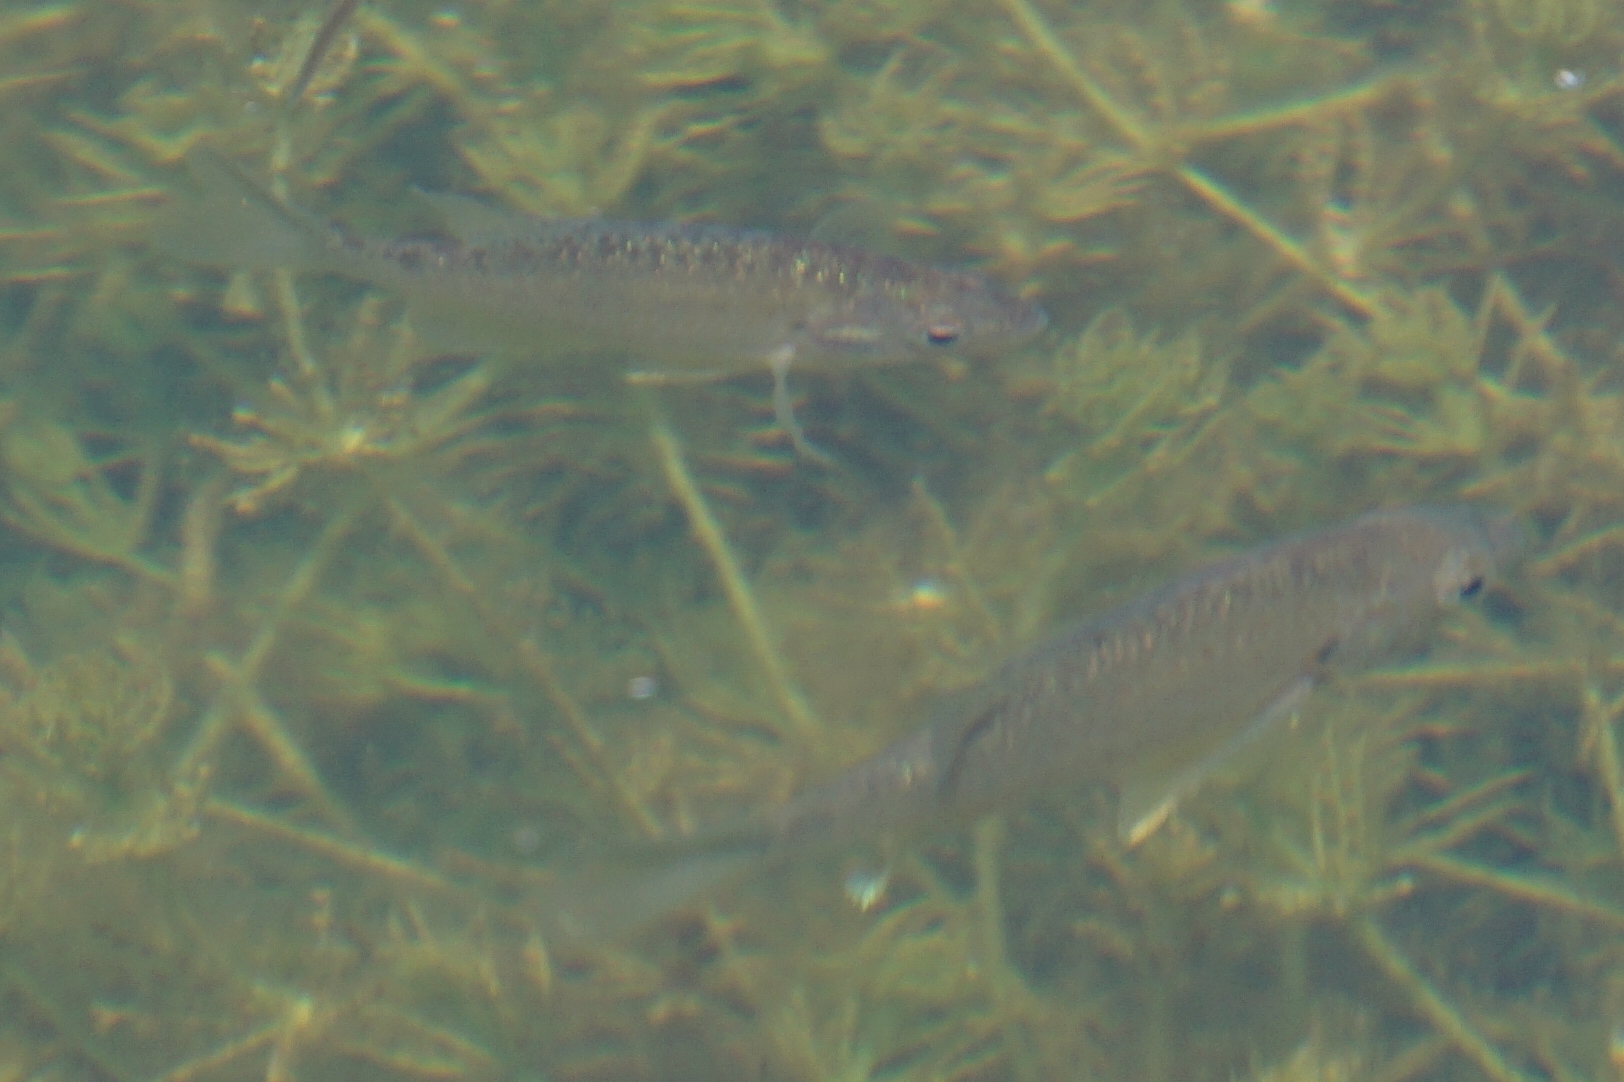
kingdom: Animalia
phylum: Chordata
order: Perciformes
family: Centrarchidae
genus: Lepomis
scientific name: Lepomis gibbosus
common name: Pumpkinseed
